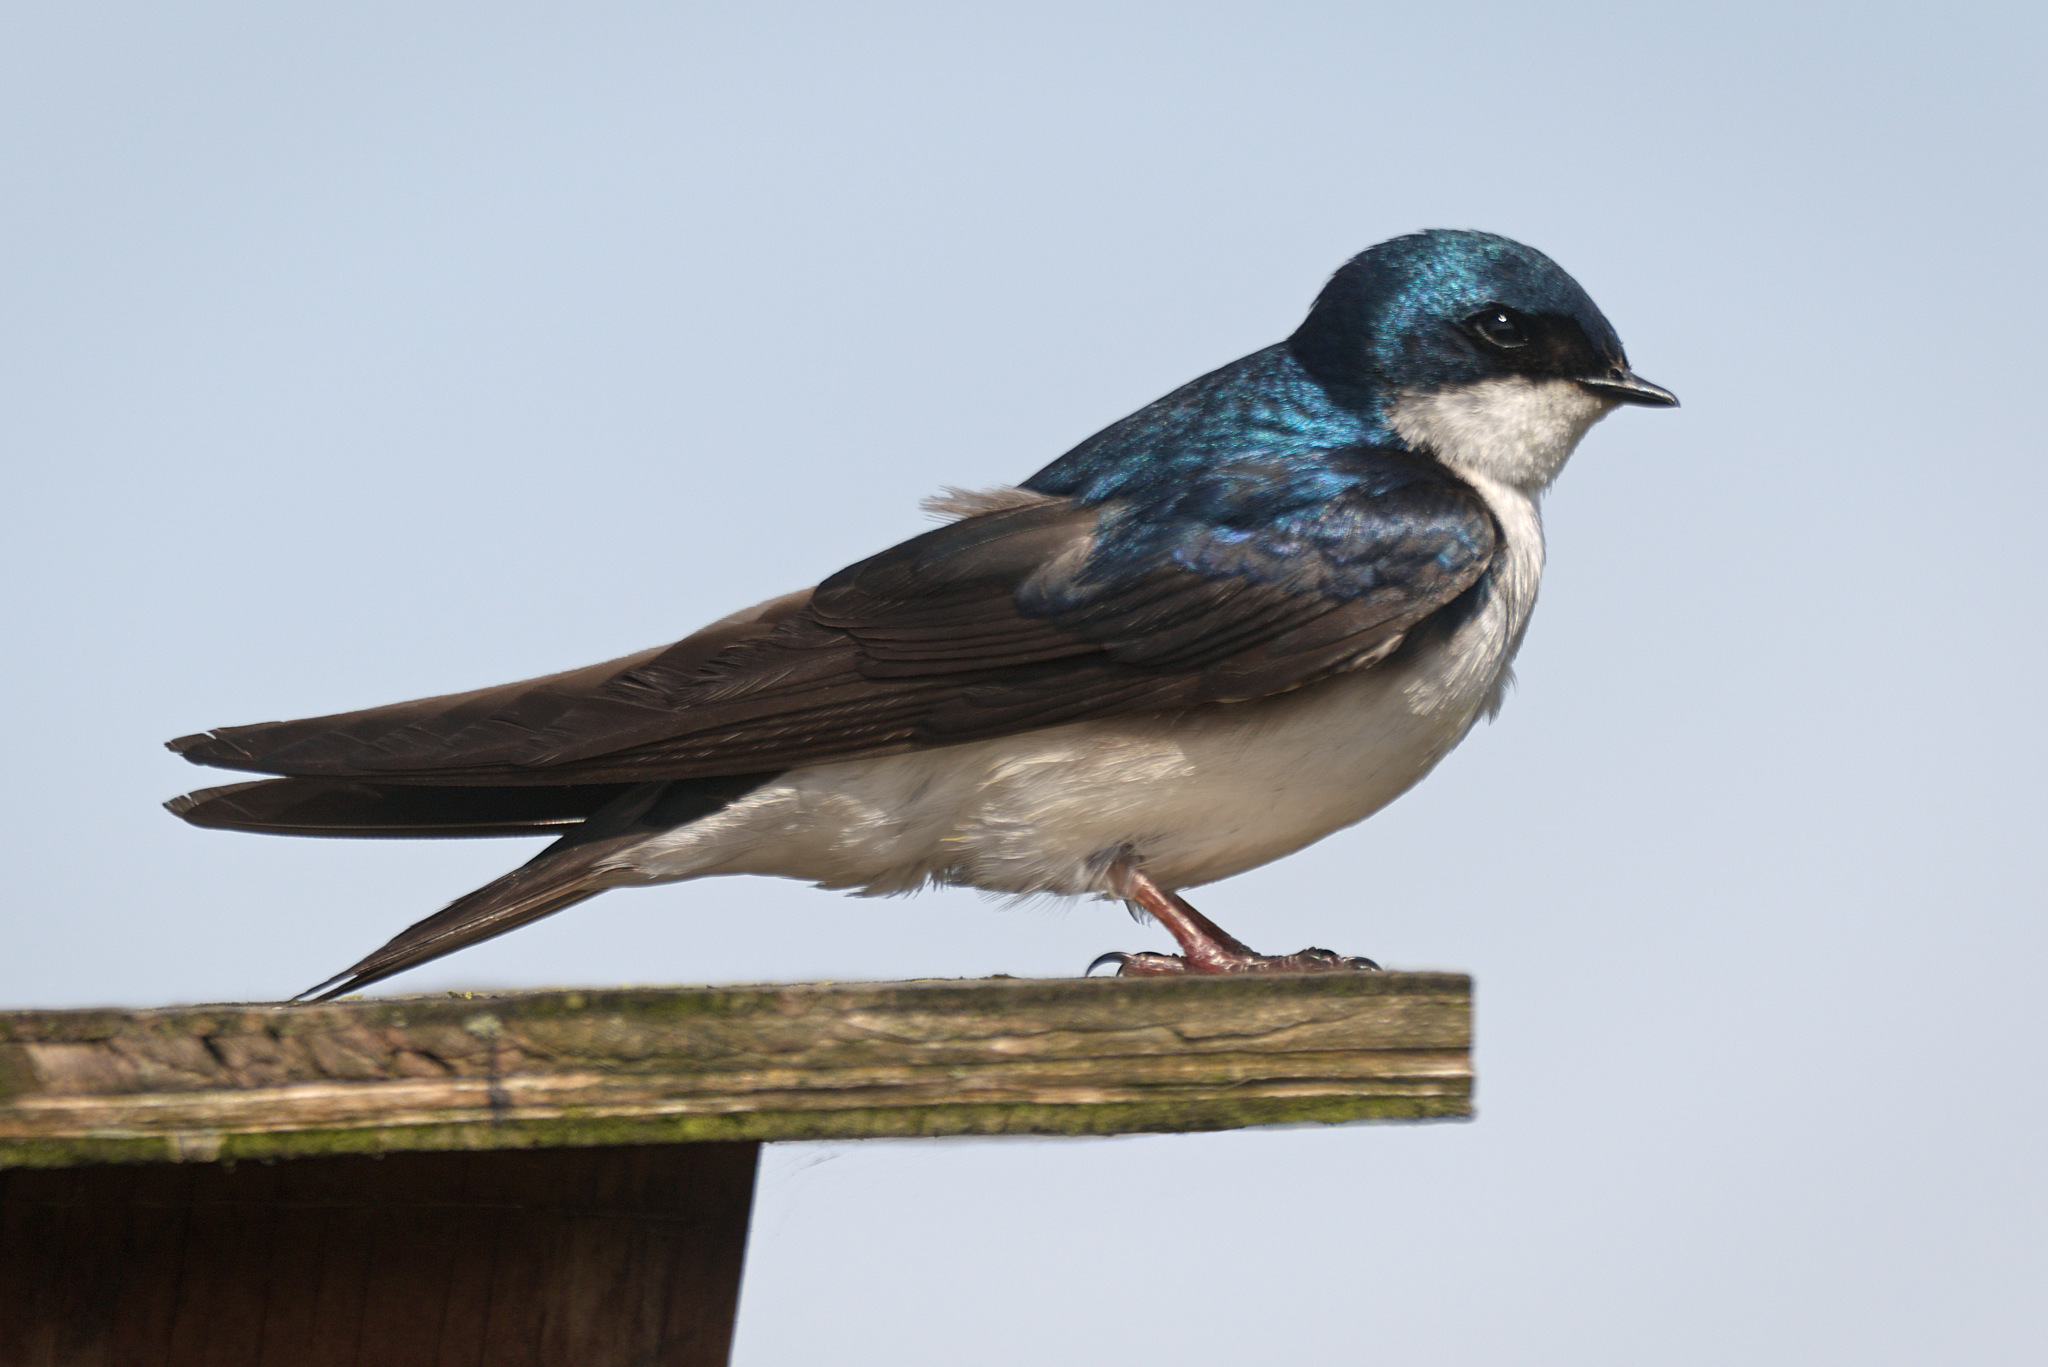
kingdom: Animalia
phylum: Chordata
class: Aves
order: Passeriformes
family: Hirundinidae
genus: Tachycineta
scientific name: Tachycineta bicolor
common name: Tree swallow
